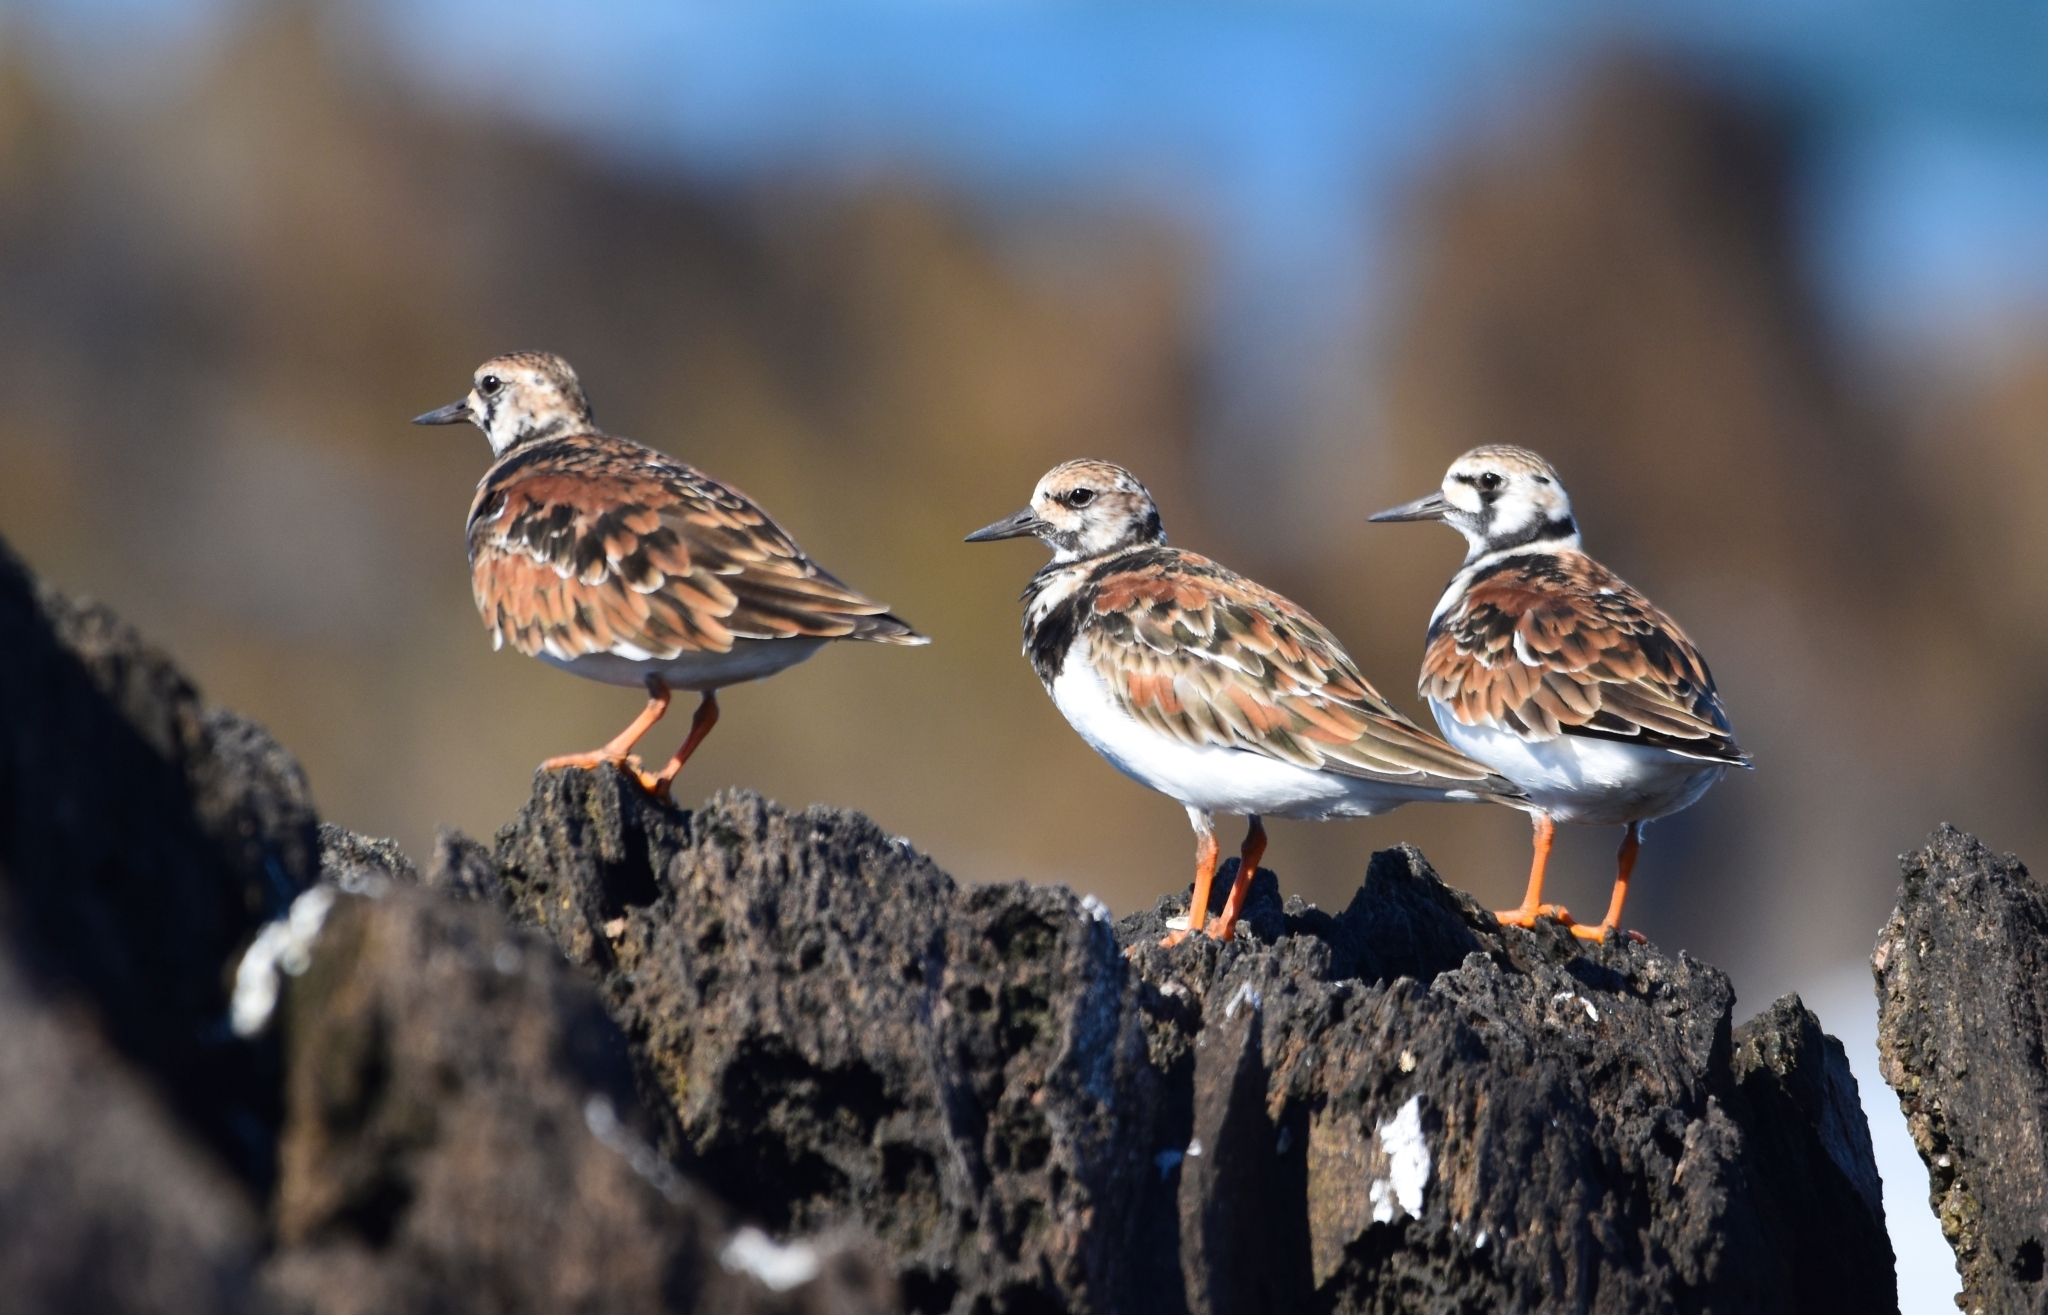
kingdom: Animalia
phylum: Chordata
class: Aves
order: Charadriiformes
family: Scolopacidae
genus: Arenaria
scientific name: Arenaria interpres
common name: Ruddy turnstone
